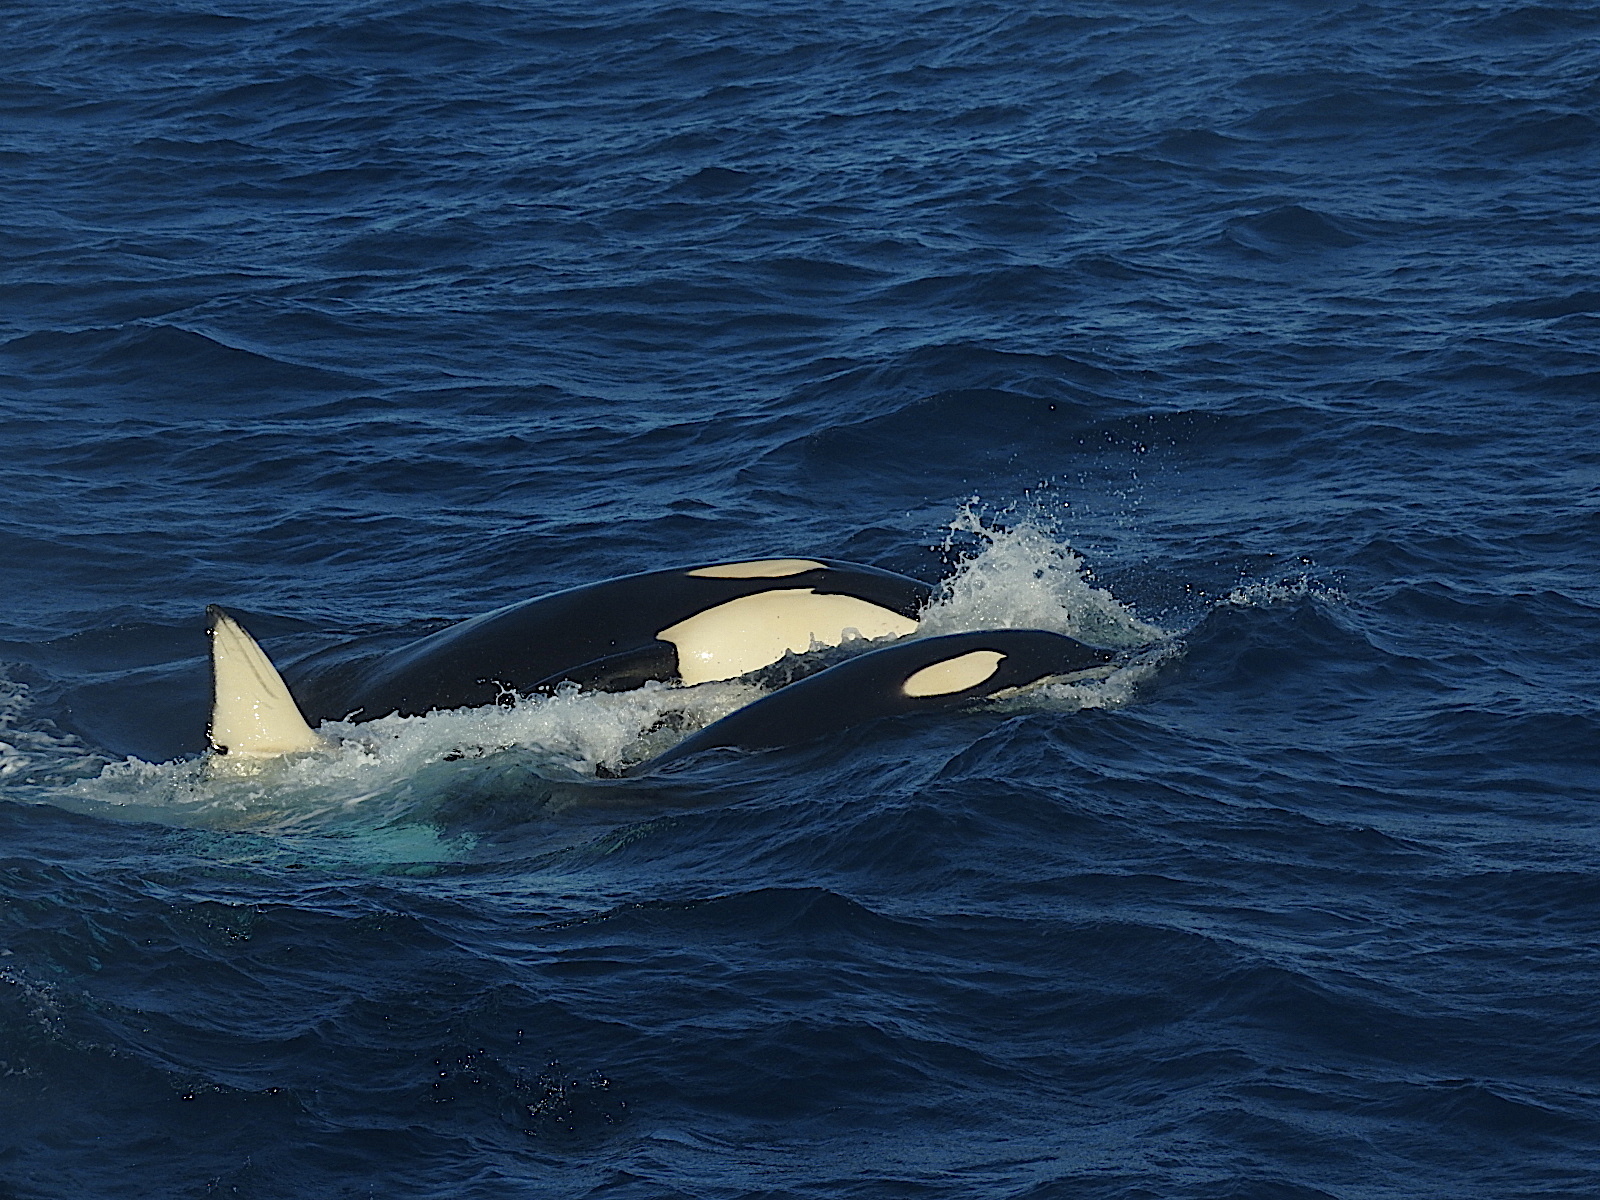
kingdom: Animalia
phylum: Chordata
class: Mammalia
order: Cetacea
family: Delphinidae
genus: Orcinus
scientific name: Orcinus orca
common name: Killer whale
